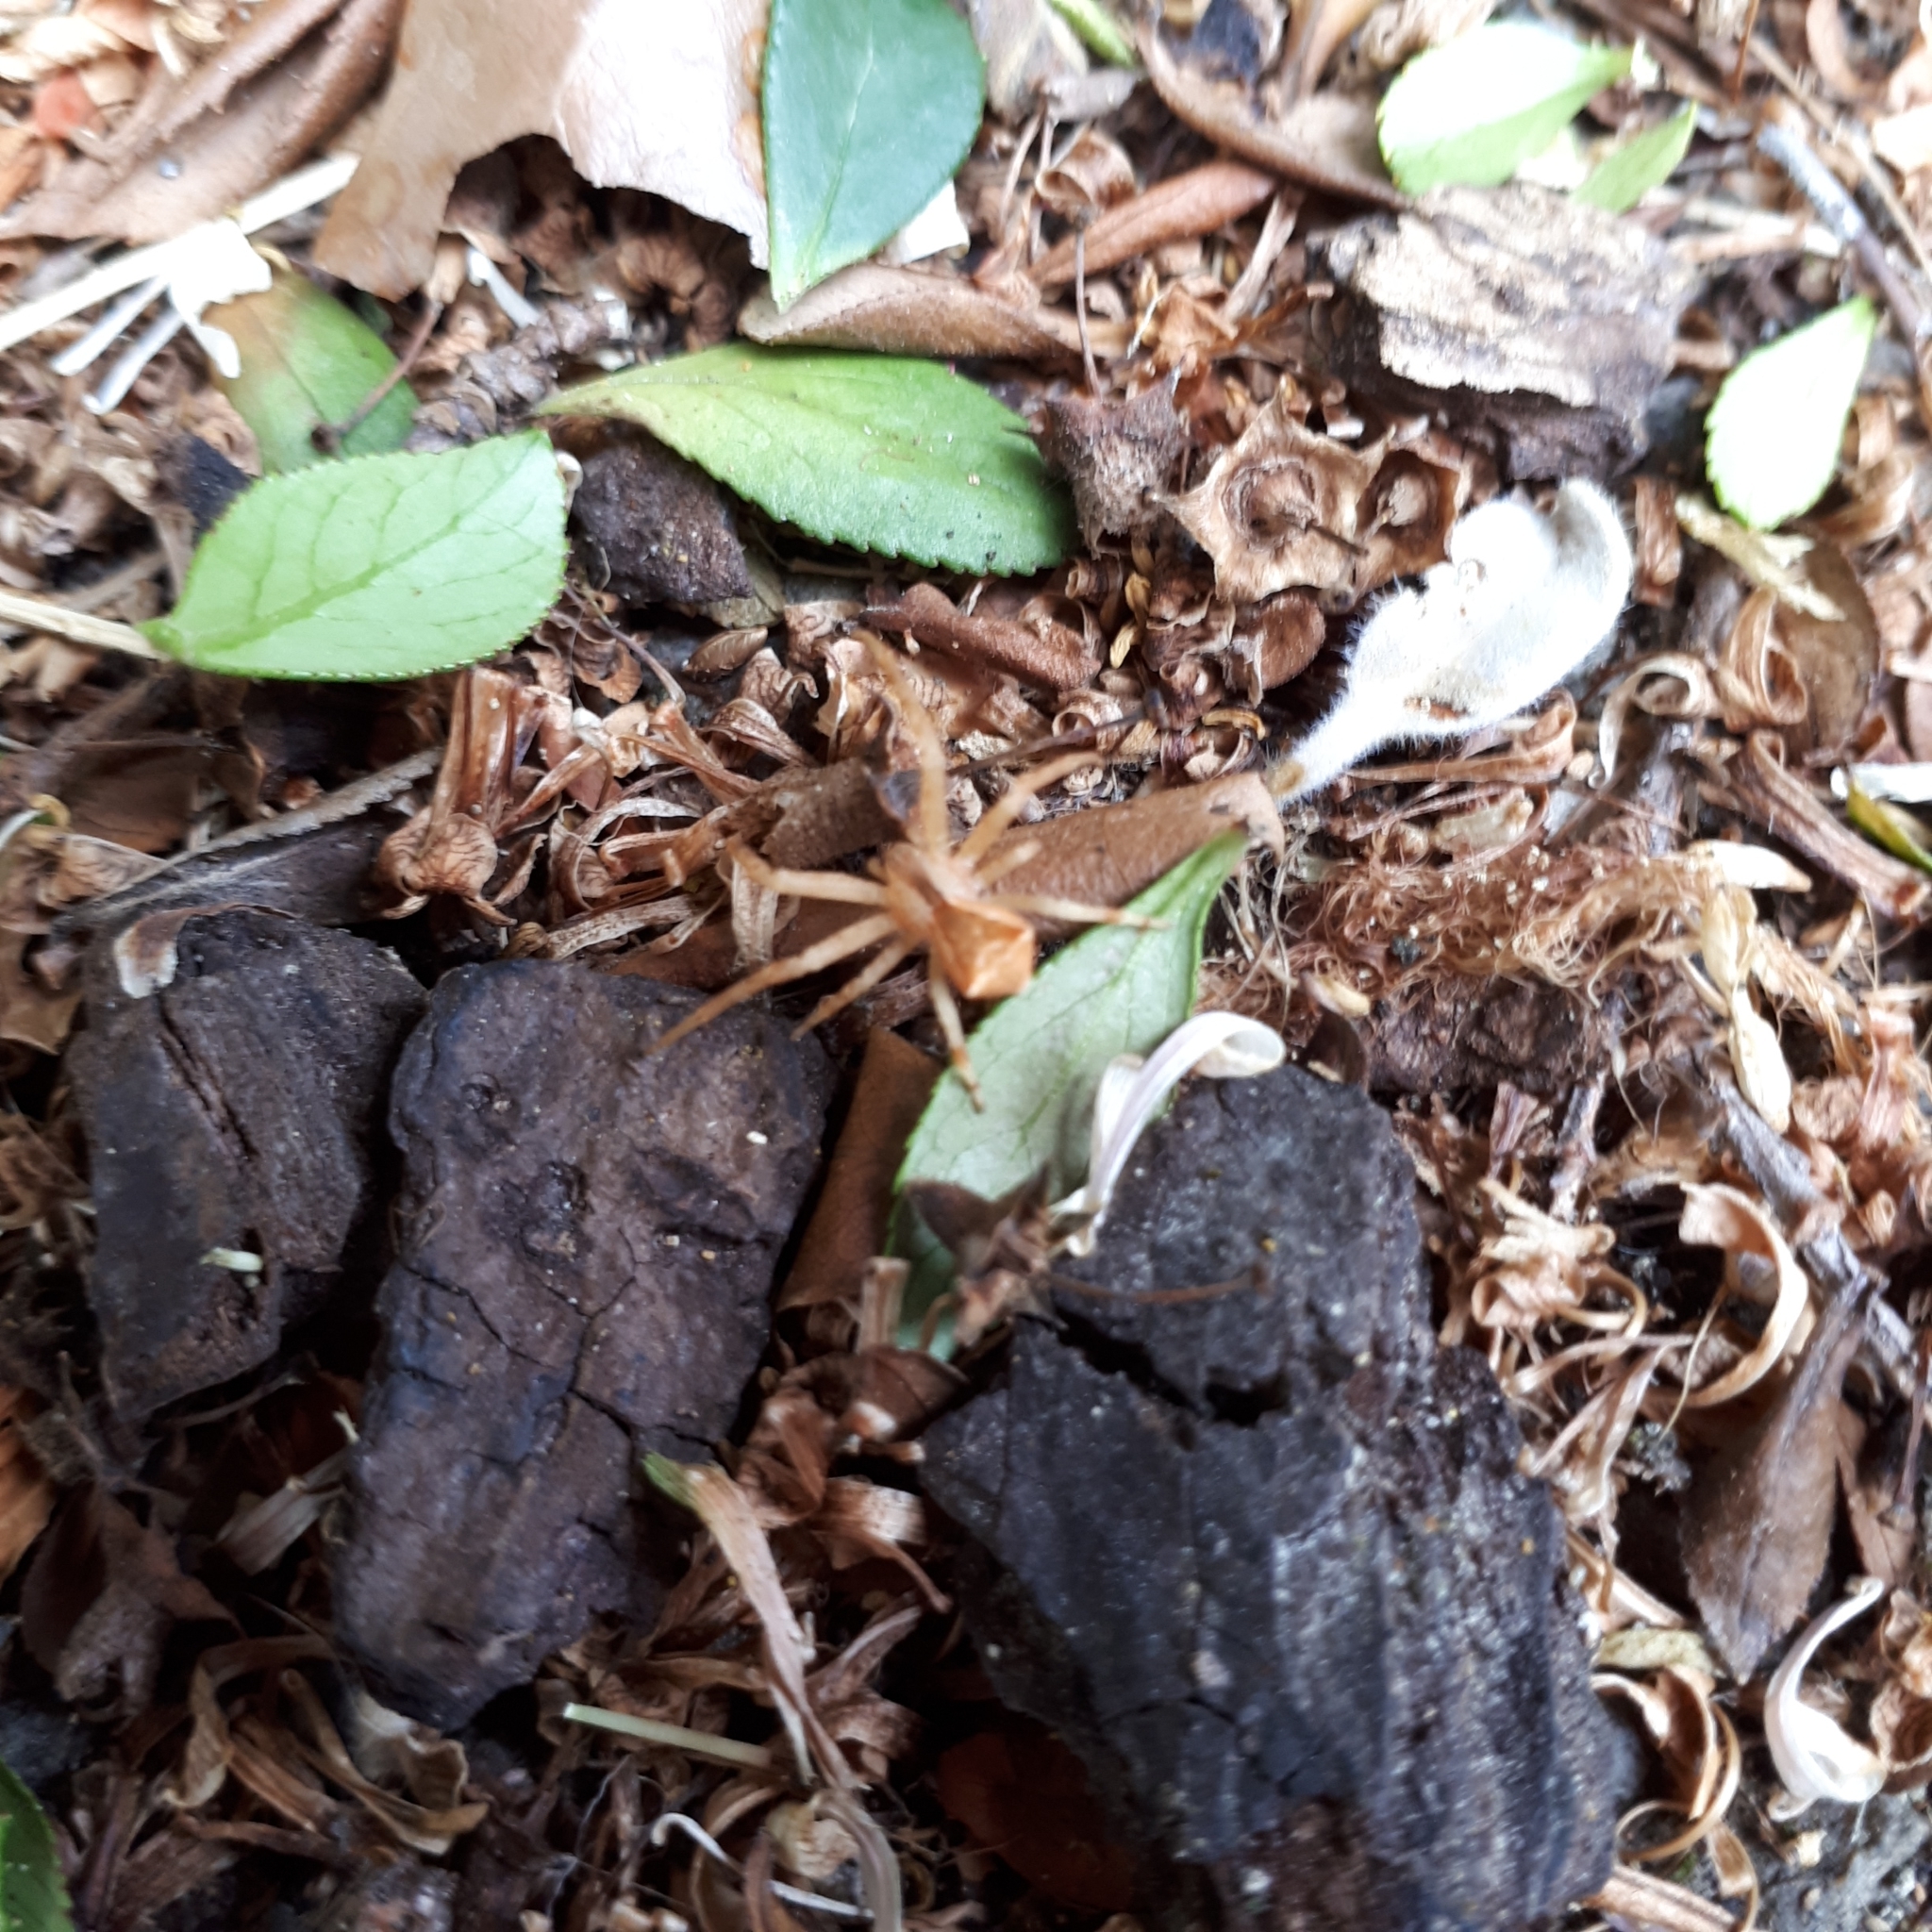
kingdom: Animalia
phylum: Arthropoda
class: Arachnida
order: Araneae
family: Thomisidae
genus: Sidymella
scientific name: Sidymella trapezia
